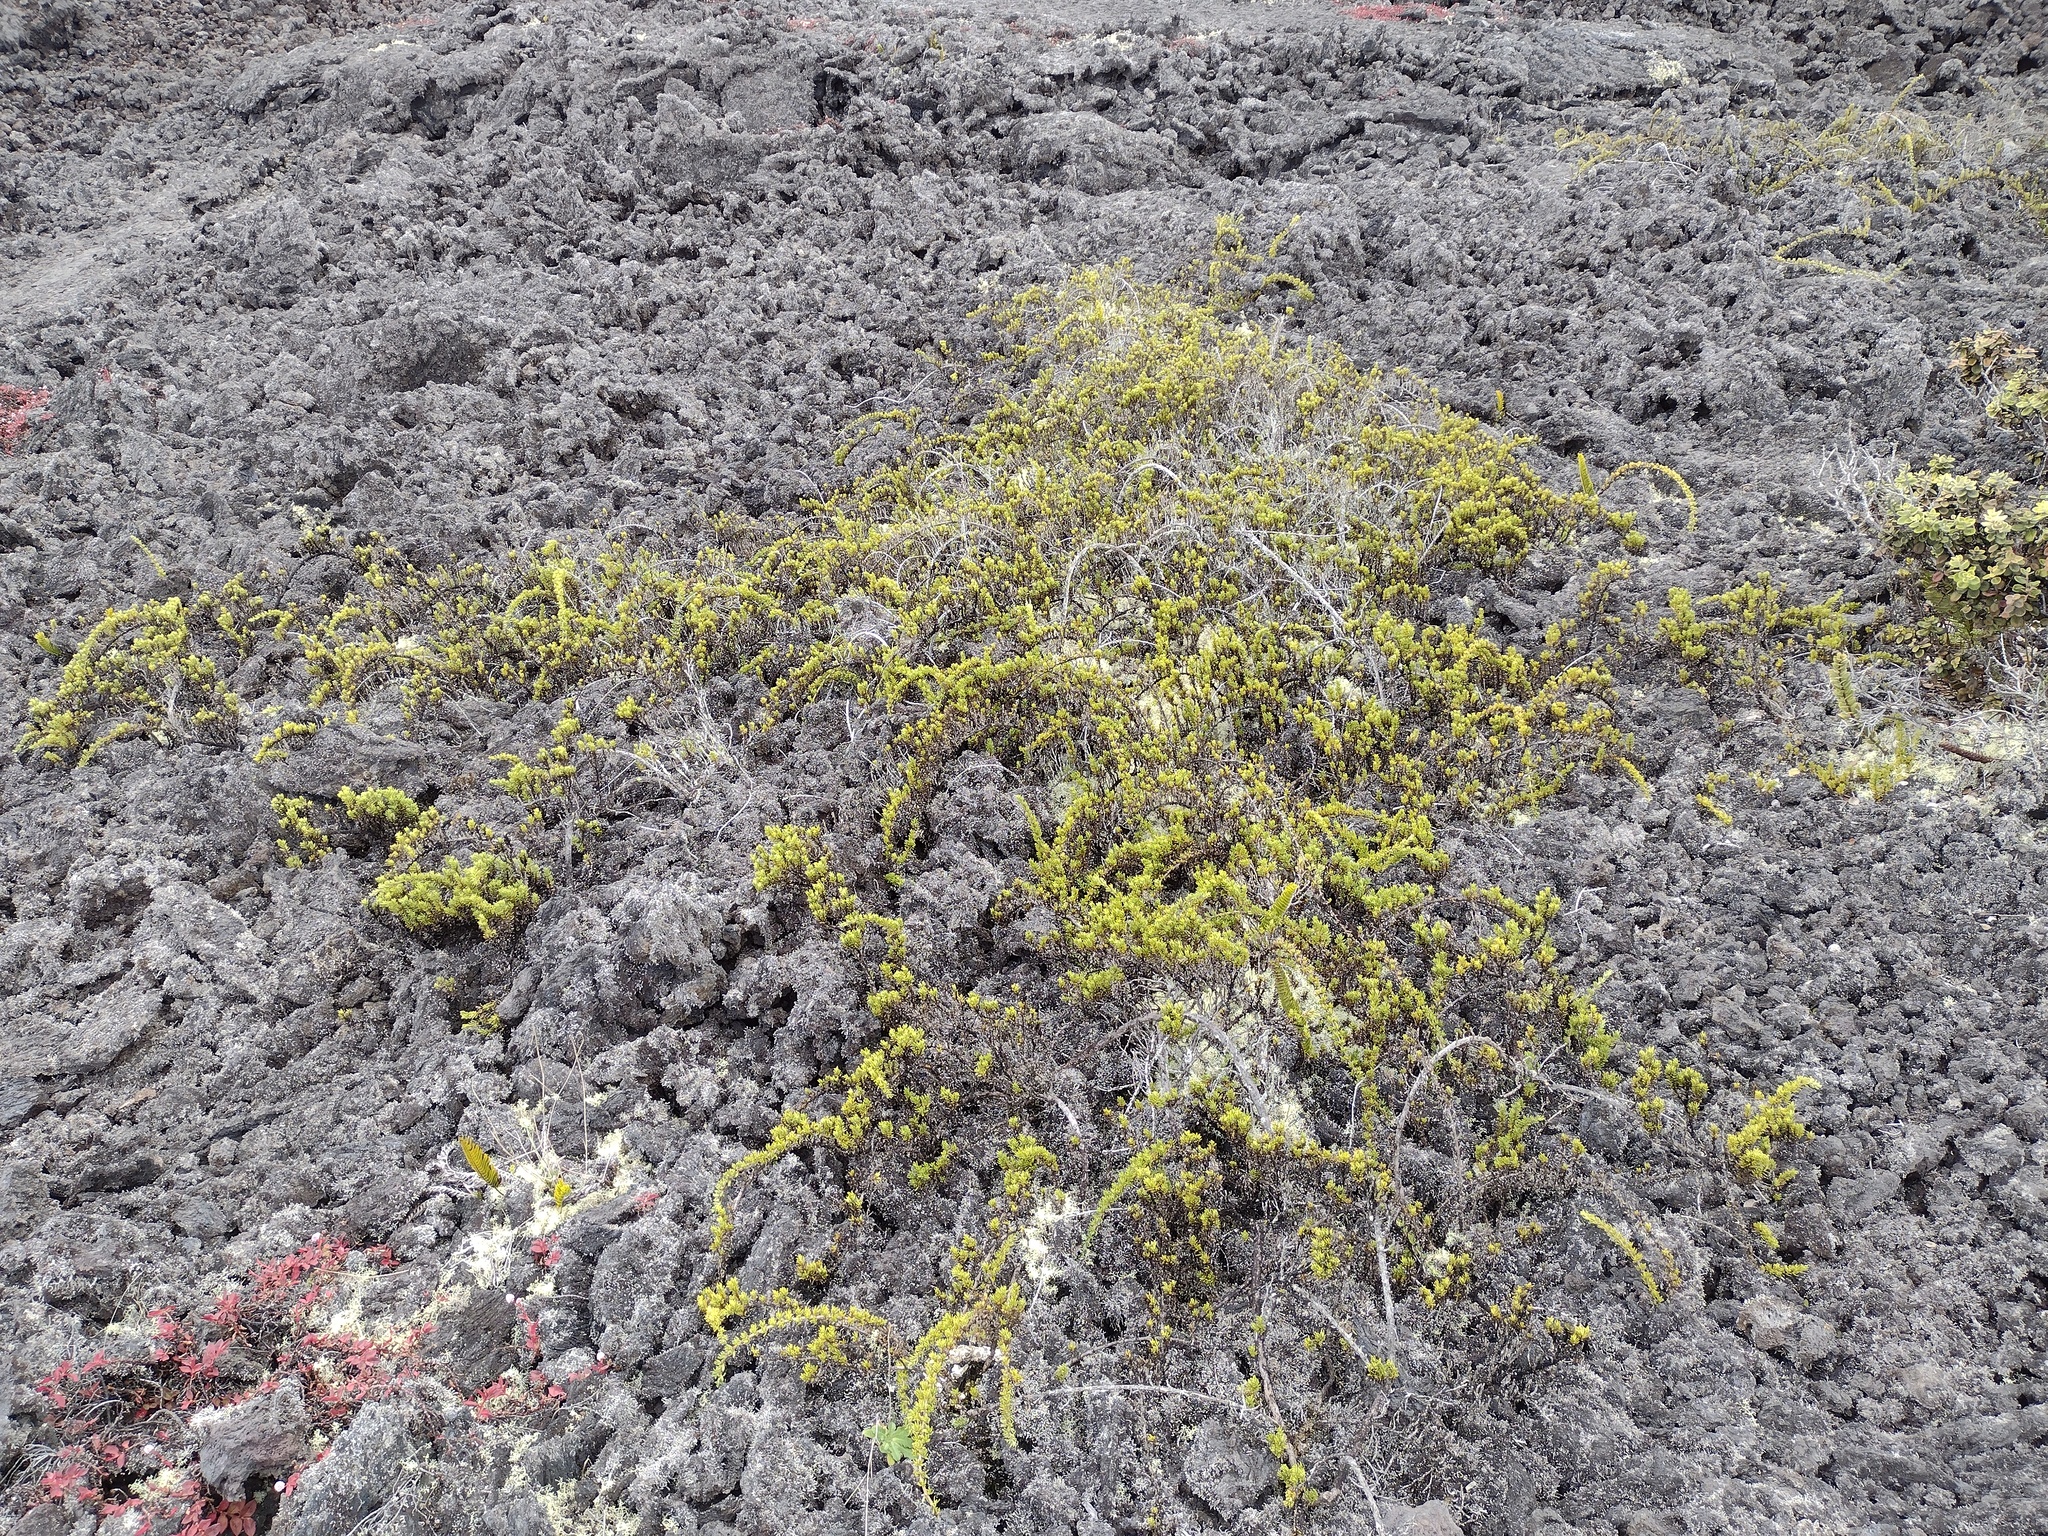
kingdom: Plantae
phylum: Tracheophyta
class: Magnoliopsida
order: Gentianales
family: Rubiaceae
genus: Coprosma
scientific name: Coprosma ernodeoides
